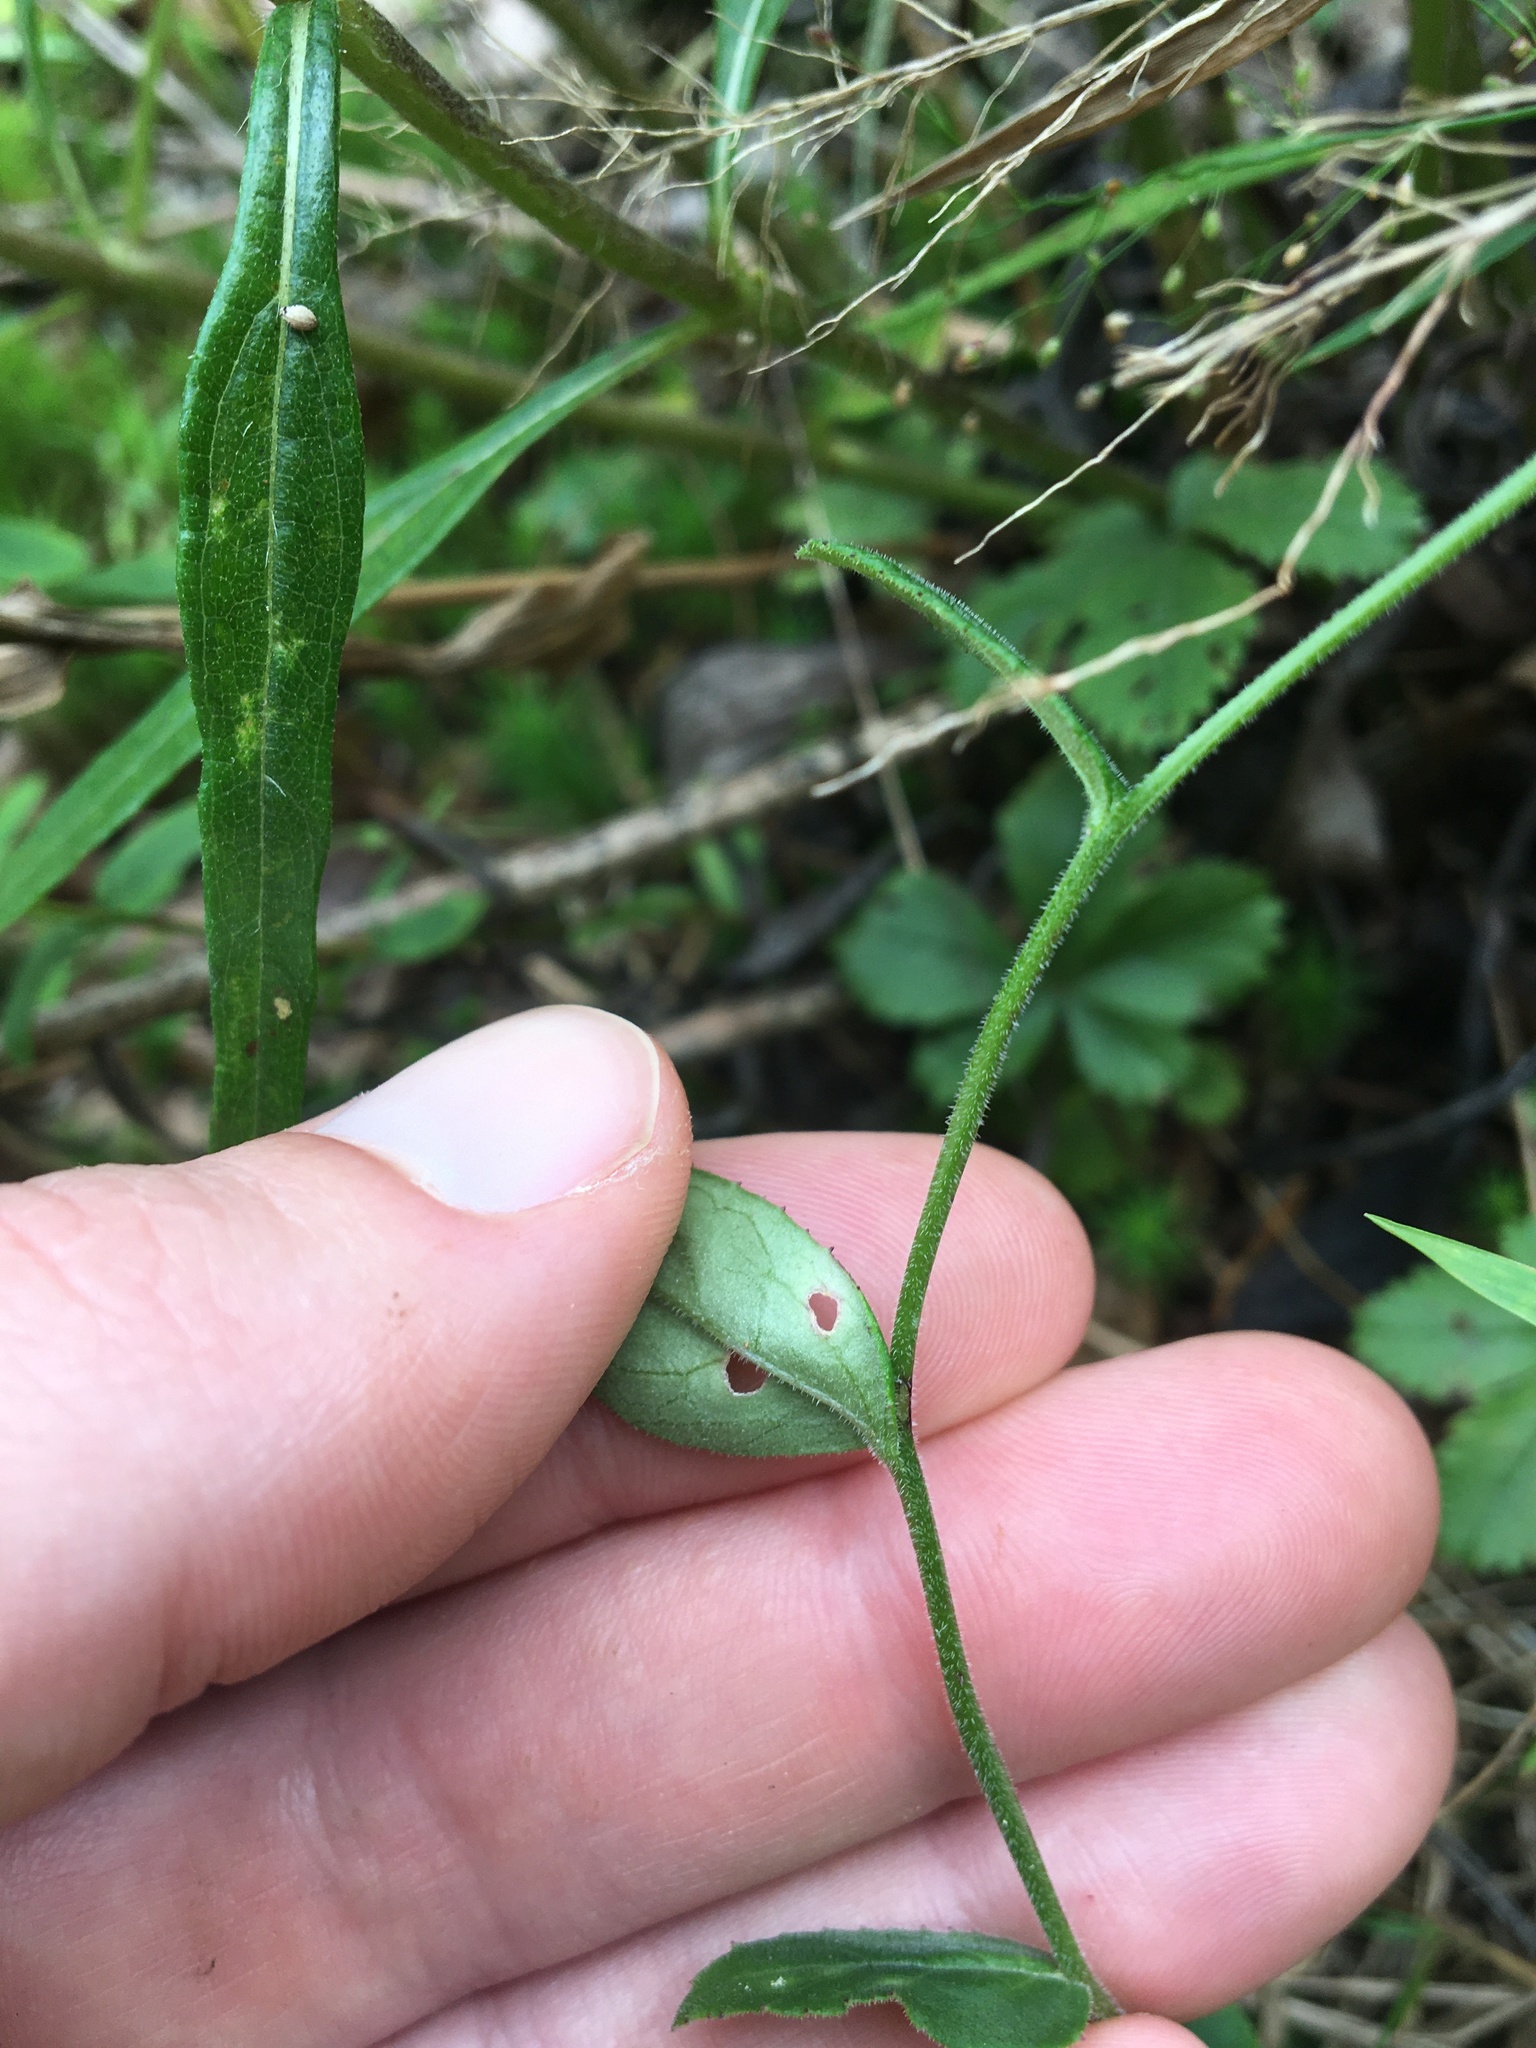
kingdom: Plantae
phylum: Tracheophyta
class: Magnoliopsida
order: Asterales
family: Campanulaceae
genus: Lobelia
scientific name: Lobelia puberula
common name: Purple dewdrop
